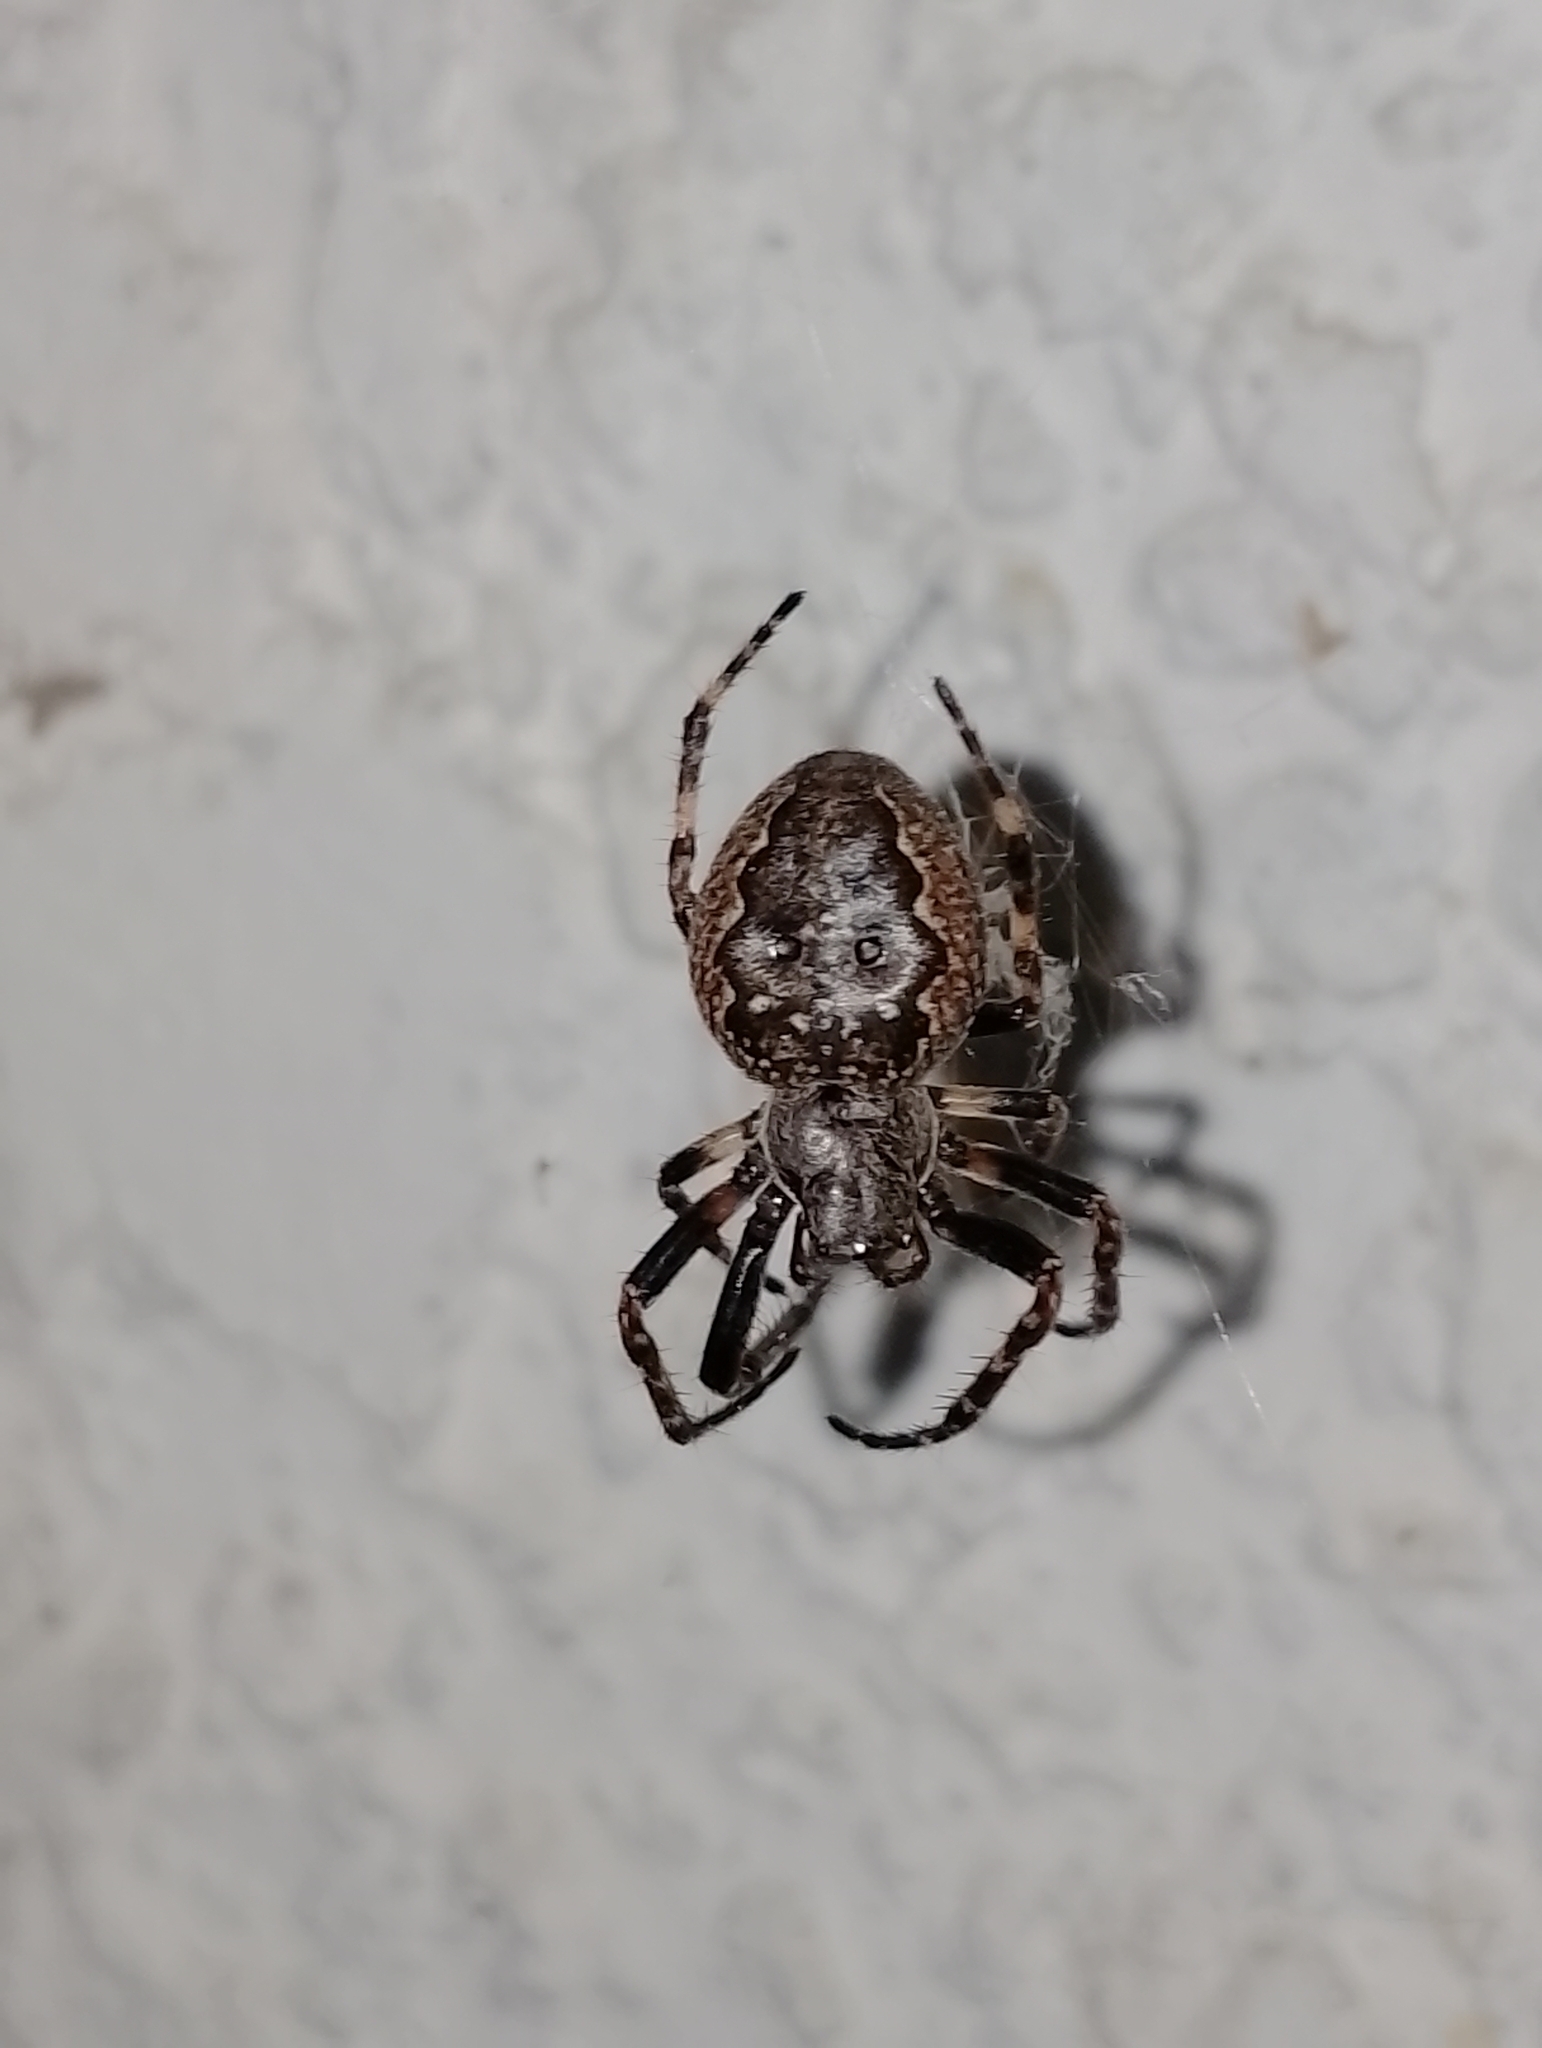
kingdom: Animalia
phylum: Arthropoda
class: Arachnida
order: Araneae
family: Araneidae
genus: Nuctenea
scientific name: Nuctenea umbratica
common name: Toad spider
